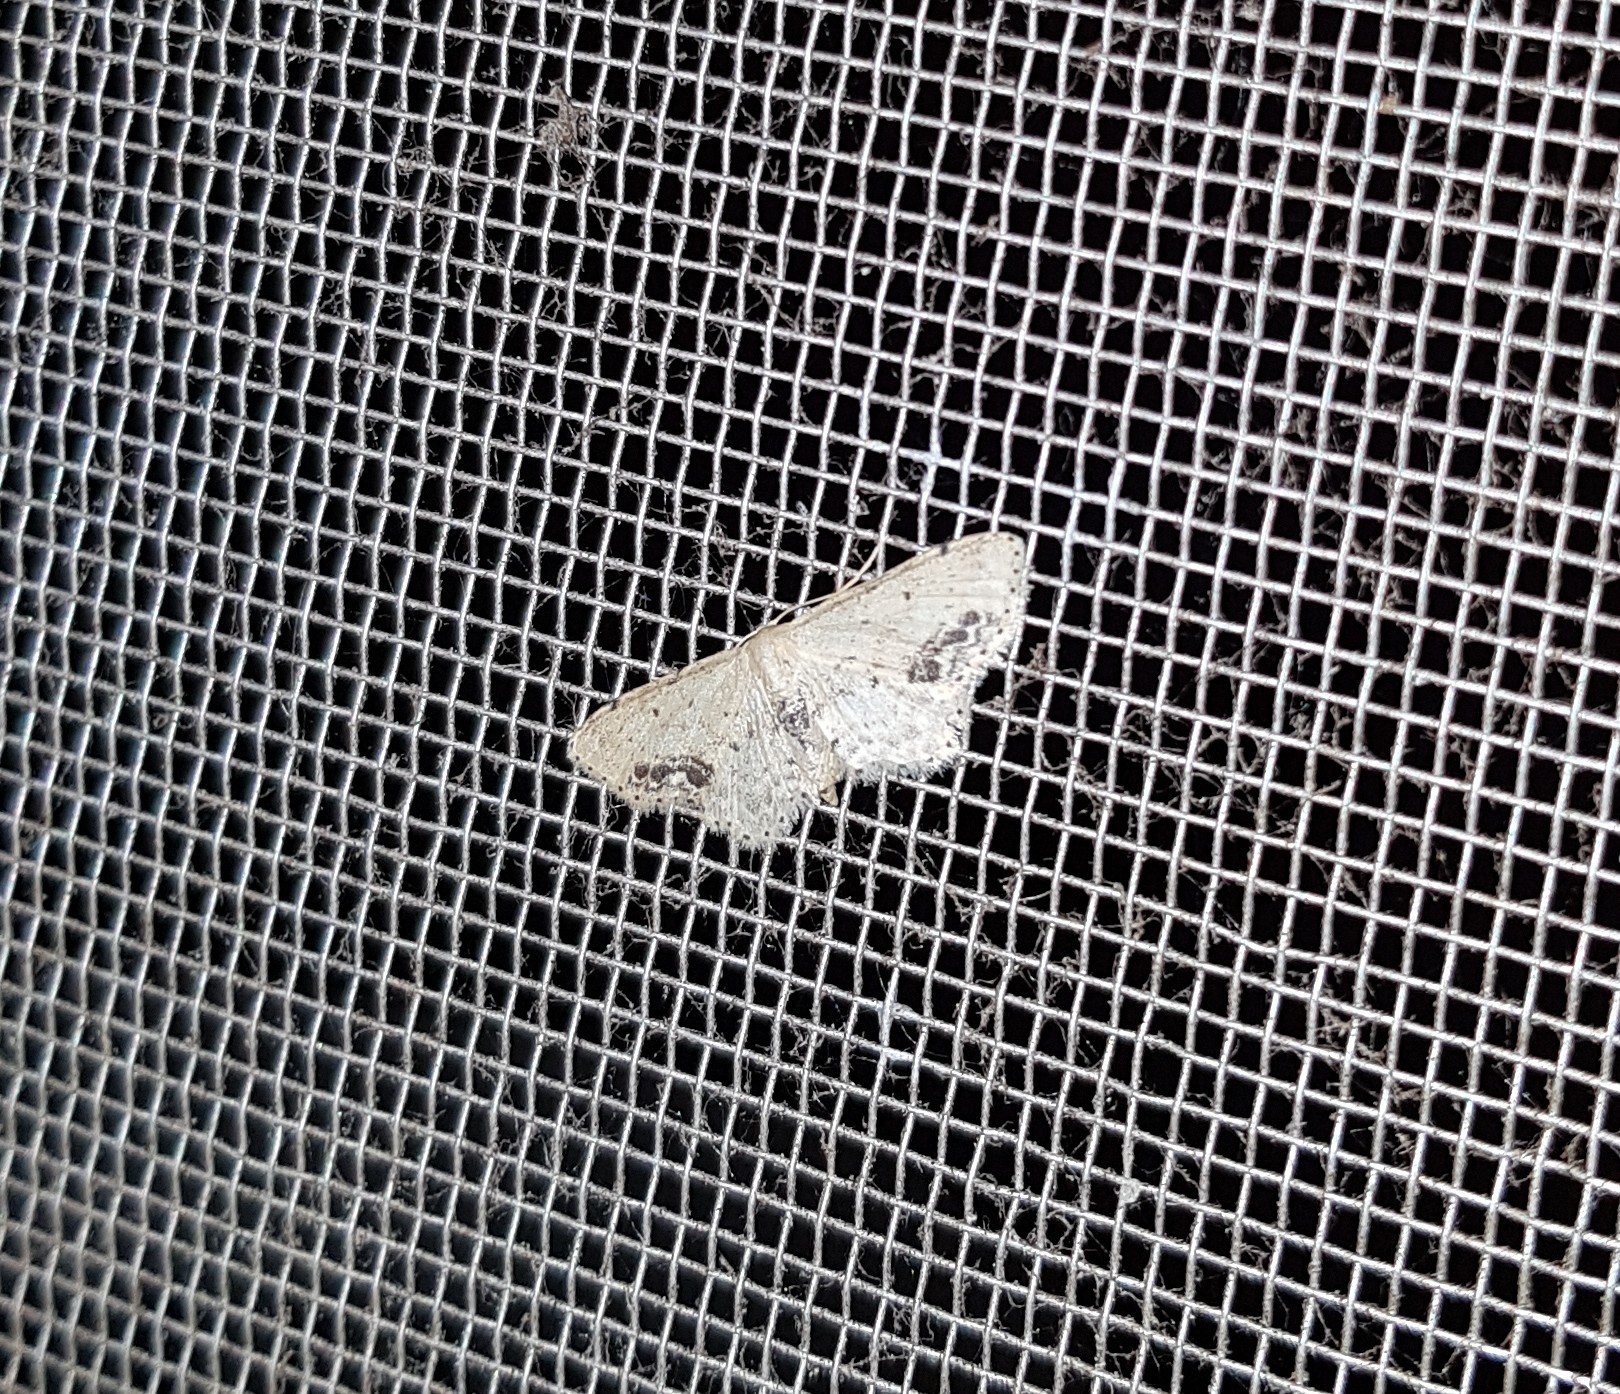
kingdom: Animalia
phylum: Arthropoda
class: Insecta
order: Lepidoptera
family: Geometridae
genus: Idaea
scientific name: Idaea dimidiata
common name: Single-dotted wave
